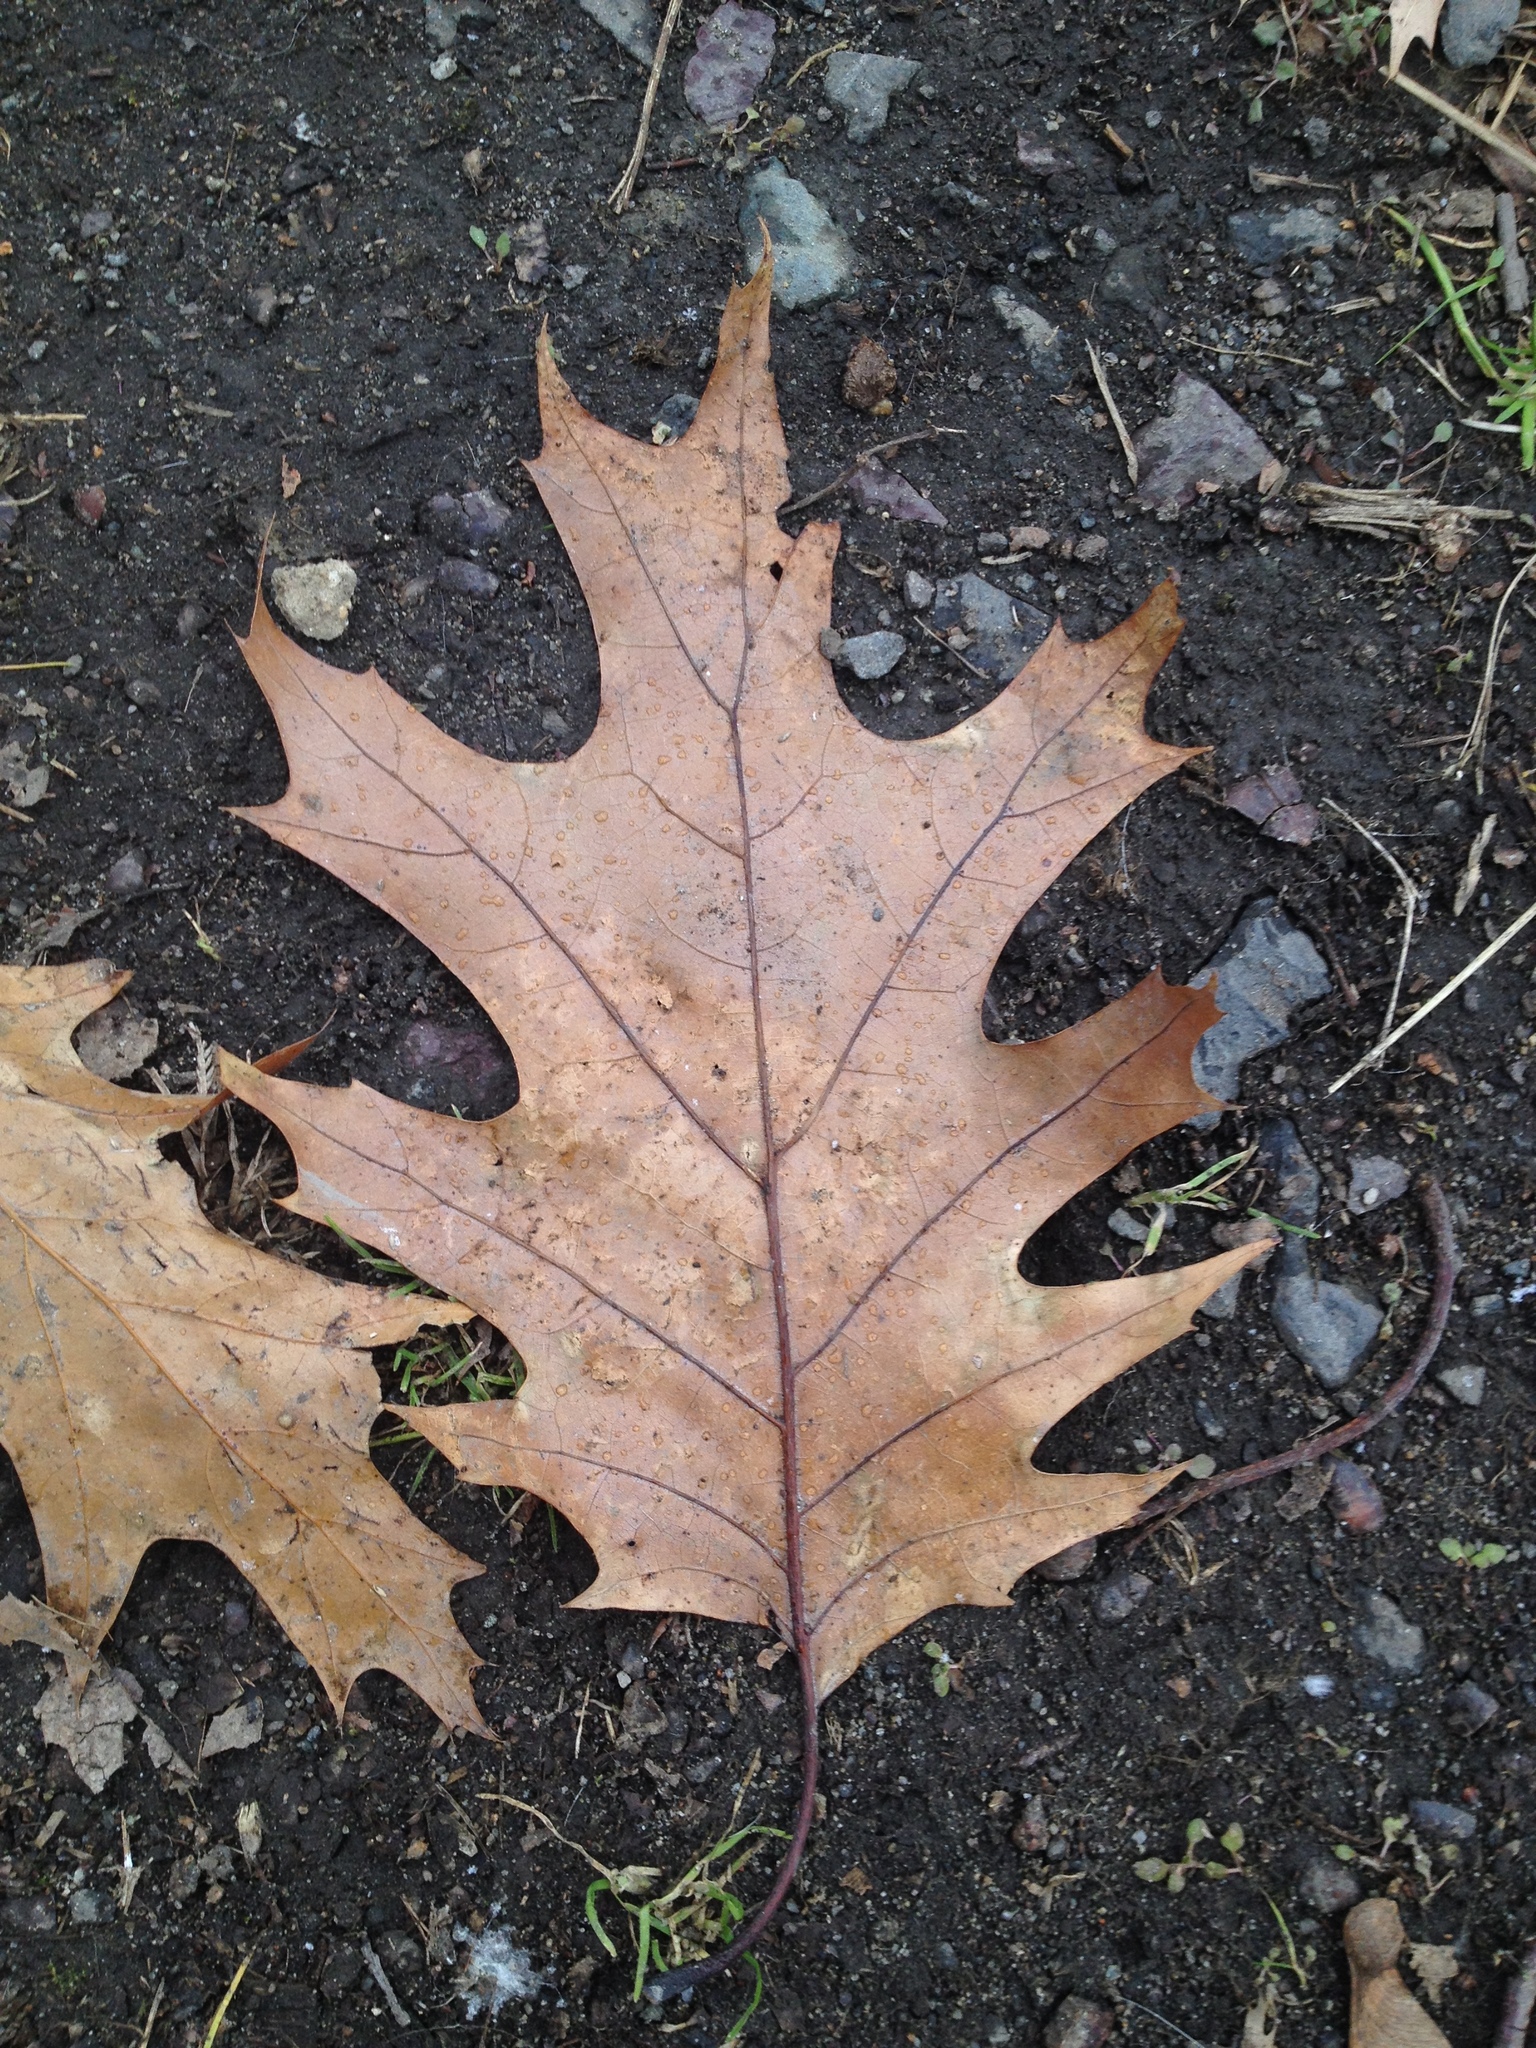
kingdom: Plantae
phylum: Tracheophyta
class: Magnoliopsida
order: Fagales
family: Fagaceae
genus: Quercus
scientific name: Quercus rubra
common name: Red oak
